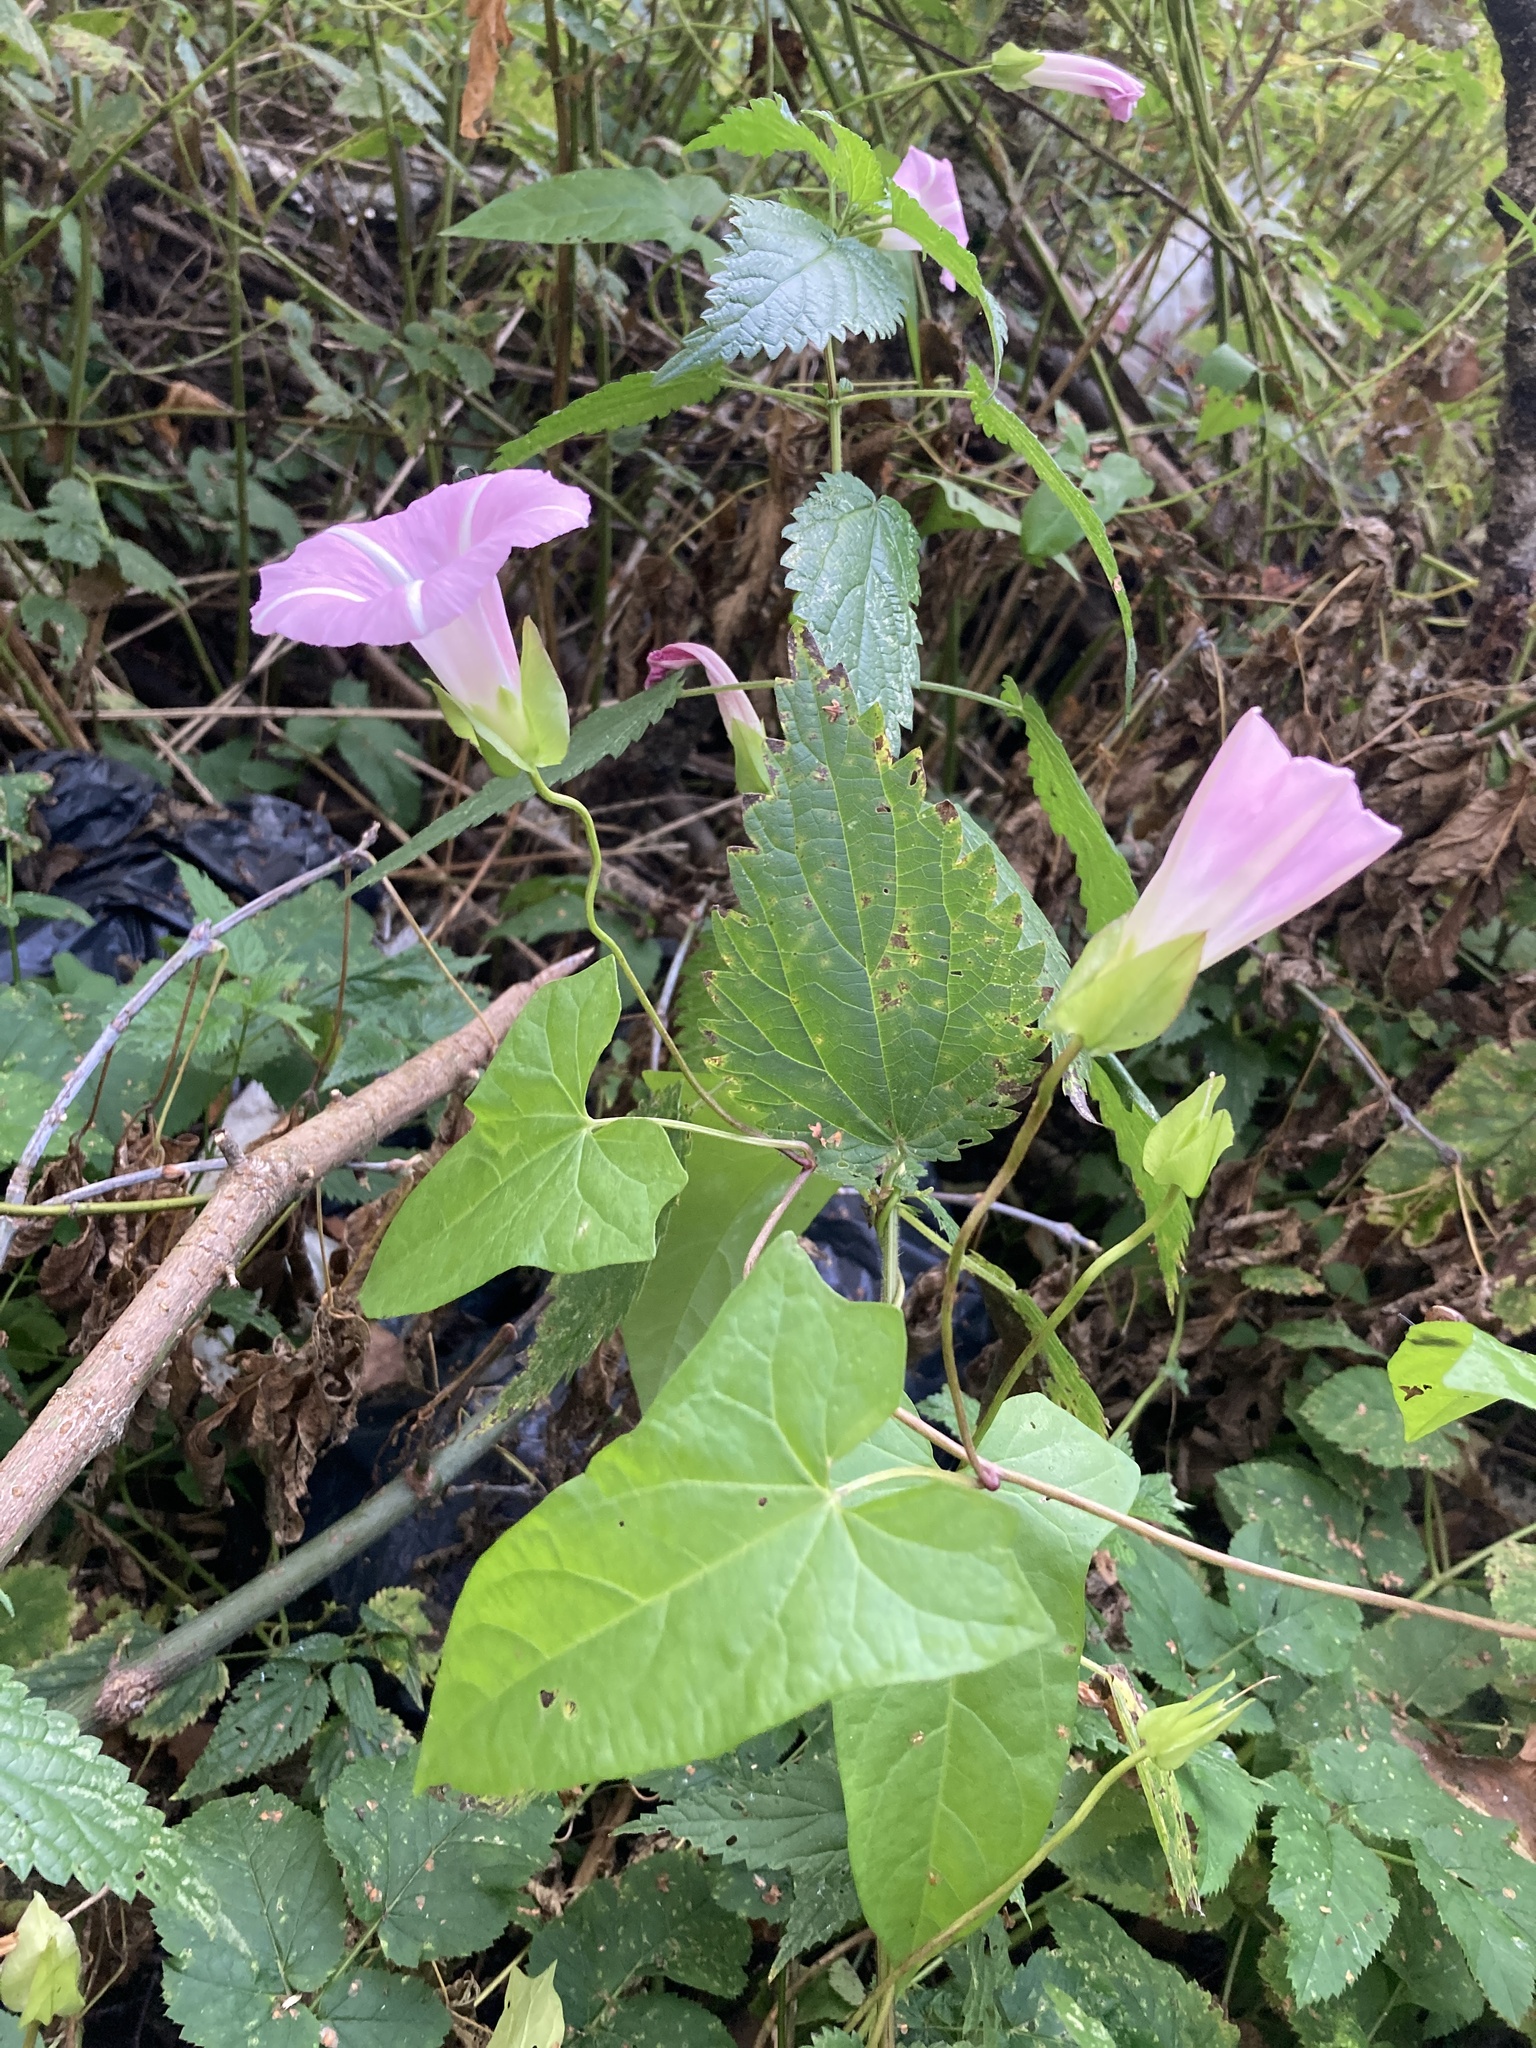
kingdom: Plantae
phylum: Tracheophyta
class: Magnoliopsida
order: Solanales
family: Convolvulaceae
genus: Calystegia
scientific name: Calystegia sepium
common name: Hedge bindweed
